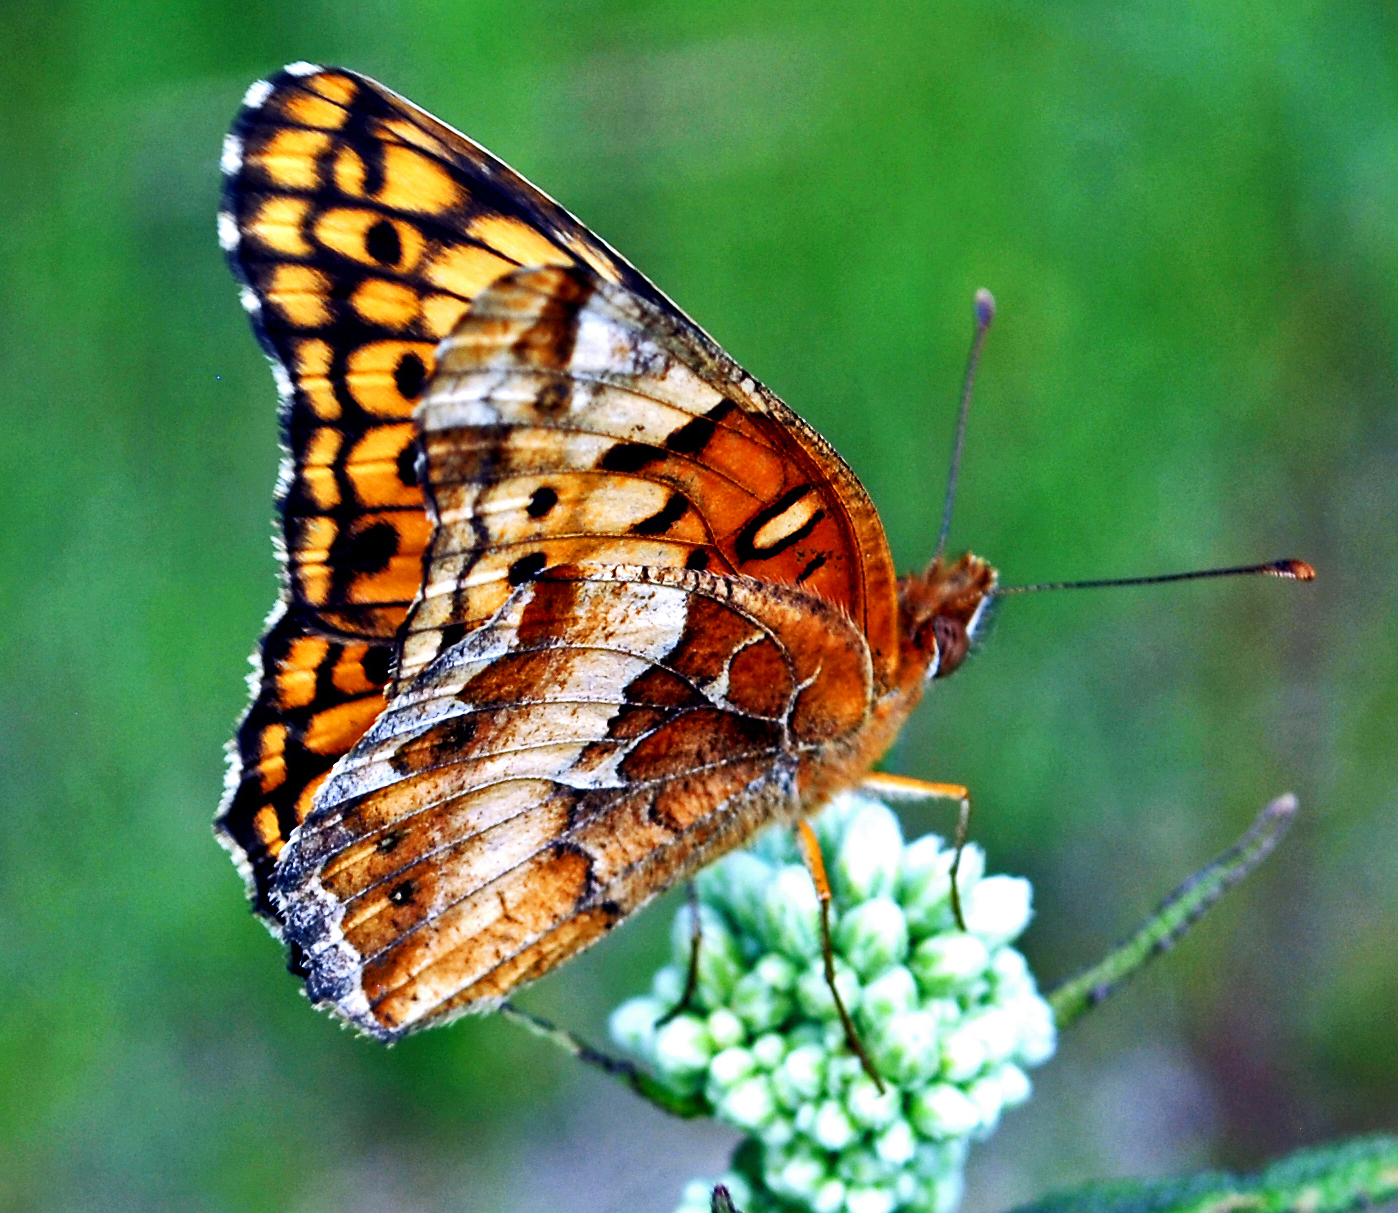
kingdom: Animalia
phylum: Arthropoda
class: Insecta
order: Lepidoptera
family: Nymphalidae
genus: Euptoieta
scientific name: Euptoieta claudia
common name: Variegated fritillary
